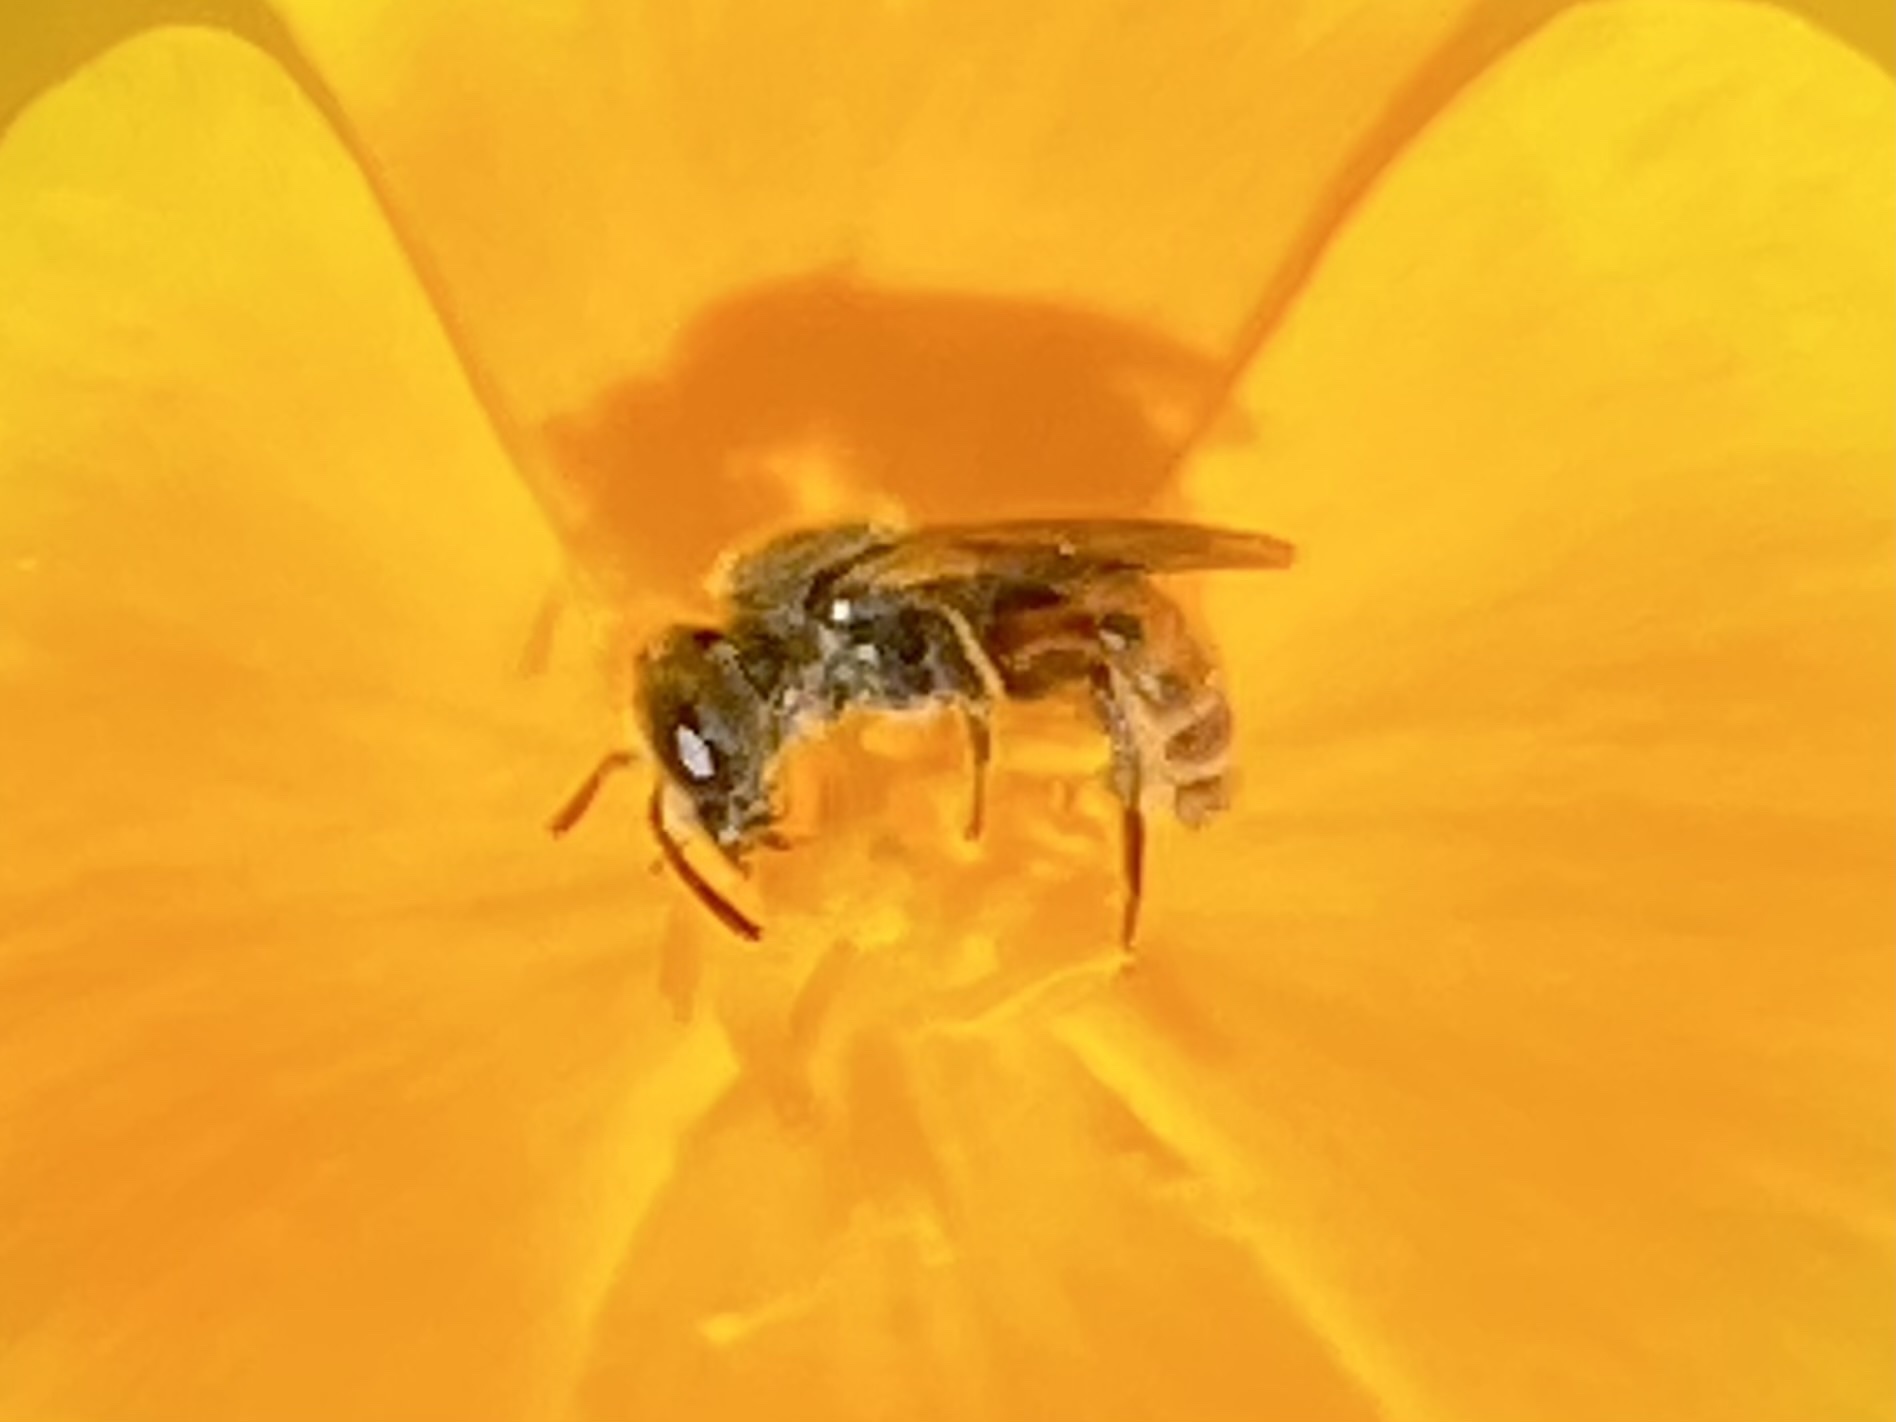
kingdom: Animalia
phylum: Arthropoda
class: Insecta
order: Hymenoptera
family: Halictidae
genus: Micralictoides
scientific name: Micralictoides ruficaudus
